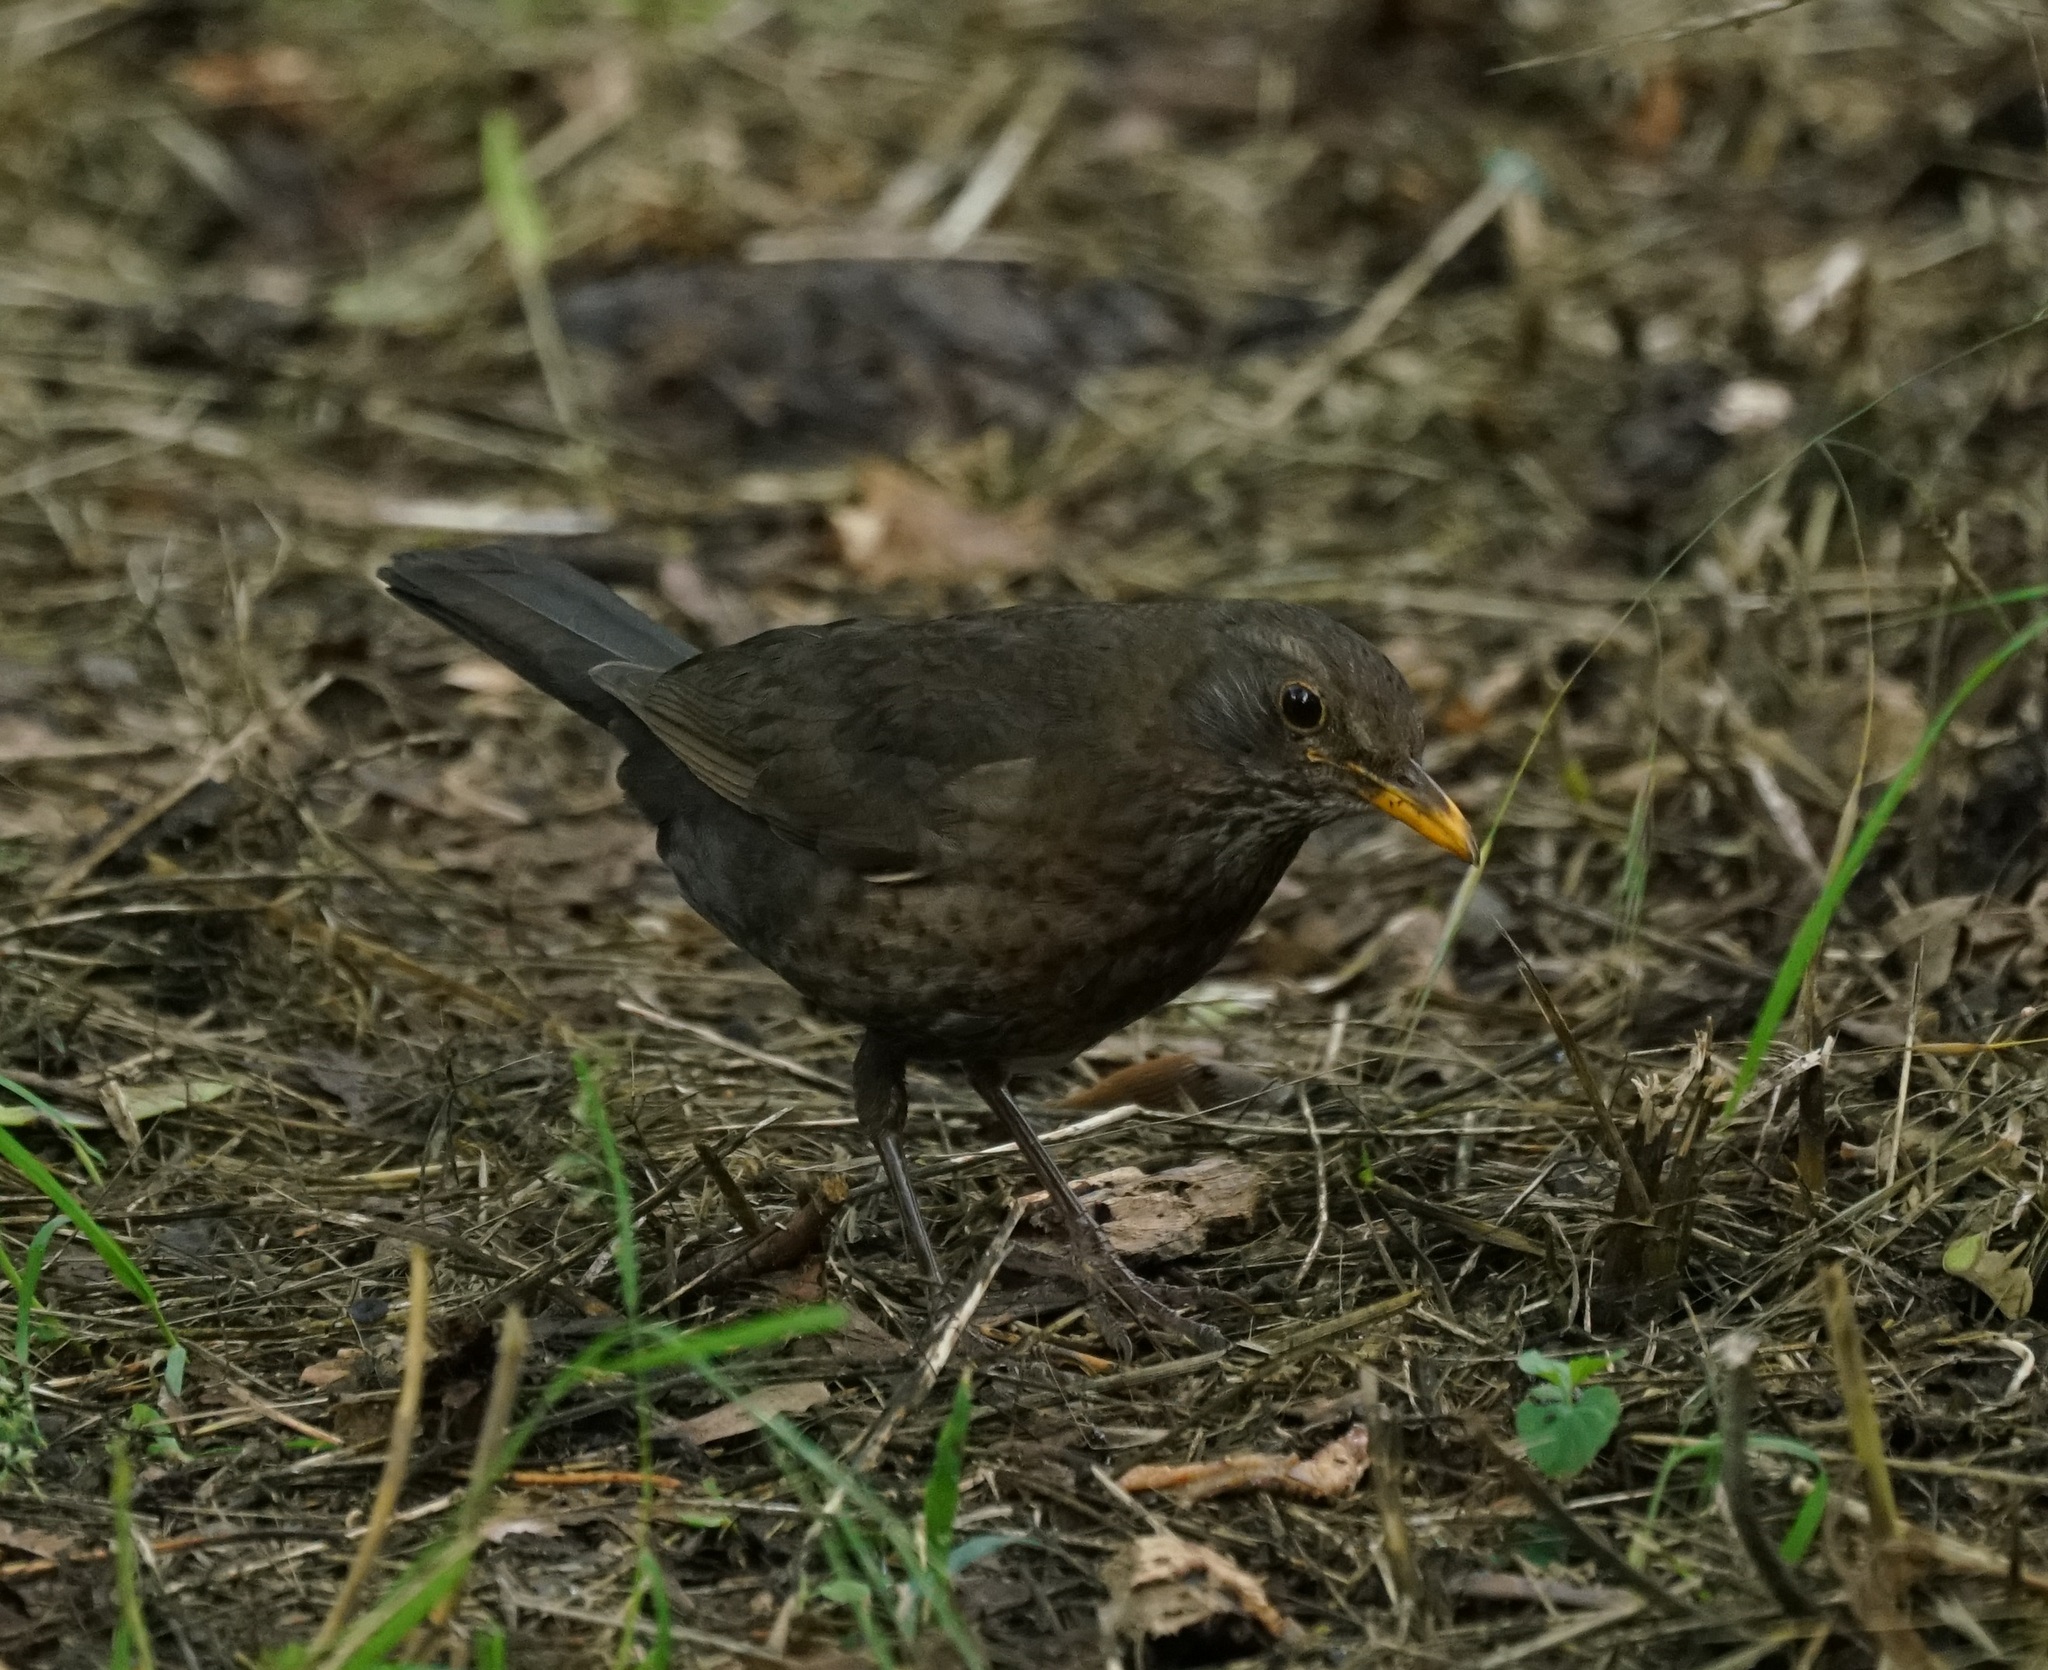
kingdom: Animalia
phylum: Chordata
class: Aves
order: Passeriformes
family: Turdidae
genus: Turdus
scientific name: Turdus merula
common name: Common blackbird
